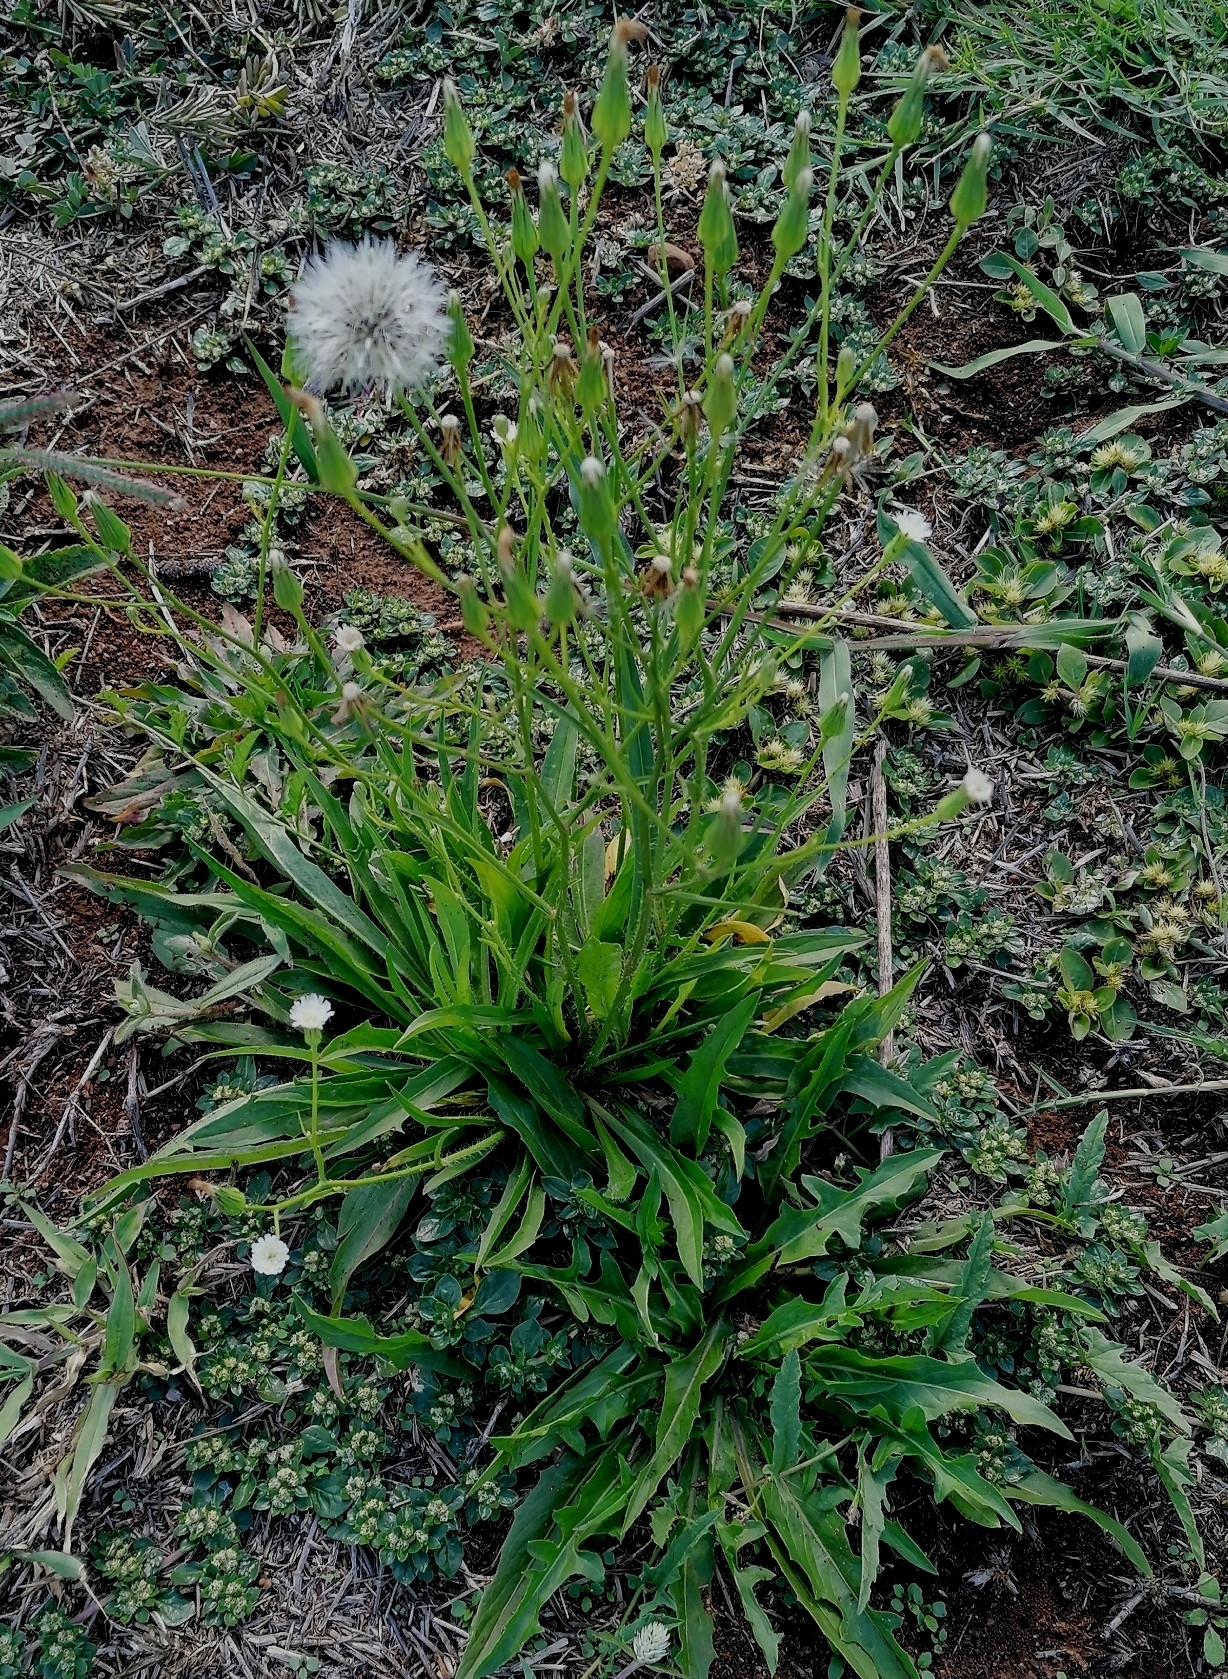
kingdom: Plantae
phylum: Tracheophyta
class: Magnoliopsida
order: Asterales
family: Asteraceae
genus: Hypochaeris
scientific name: Hypochaeris albiflora
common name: White flatweed
